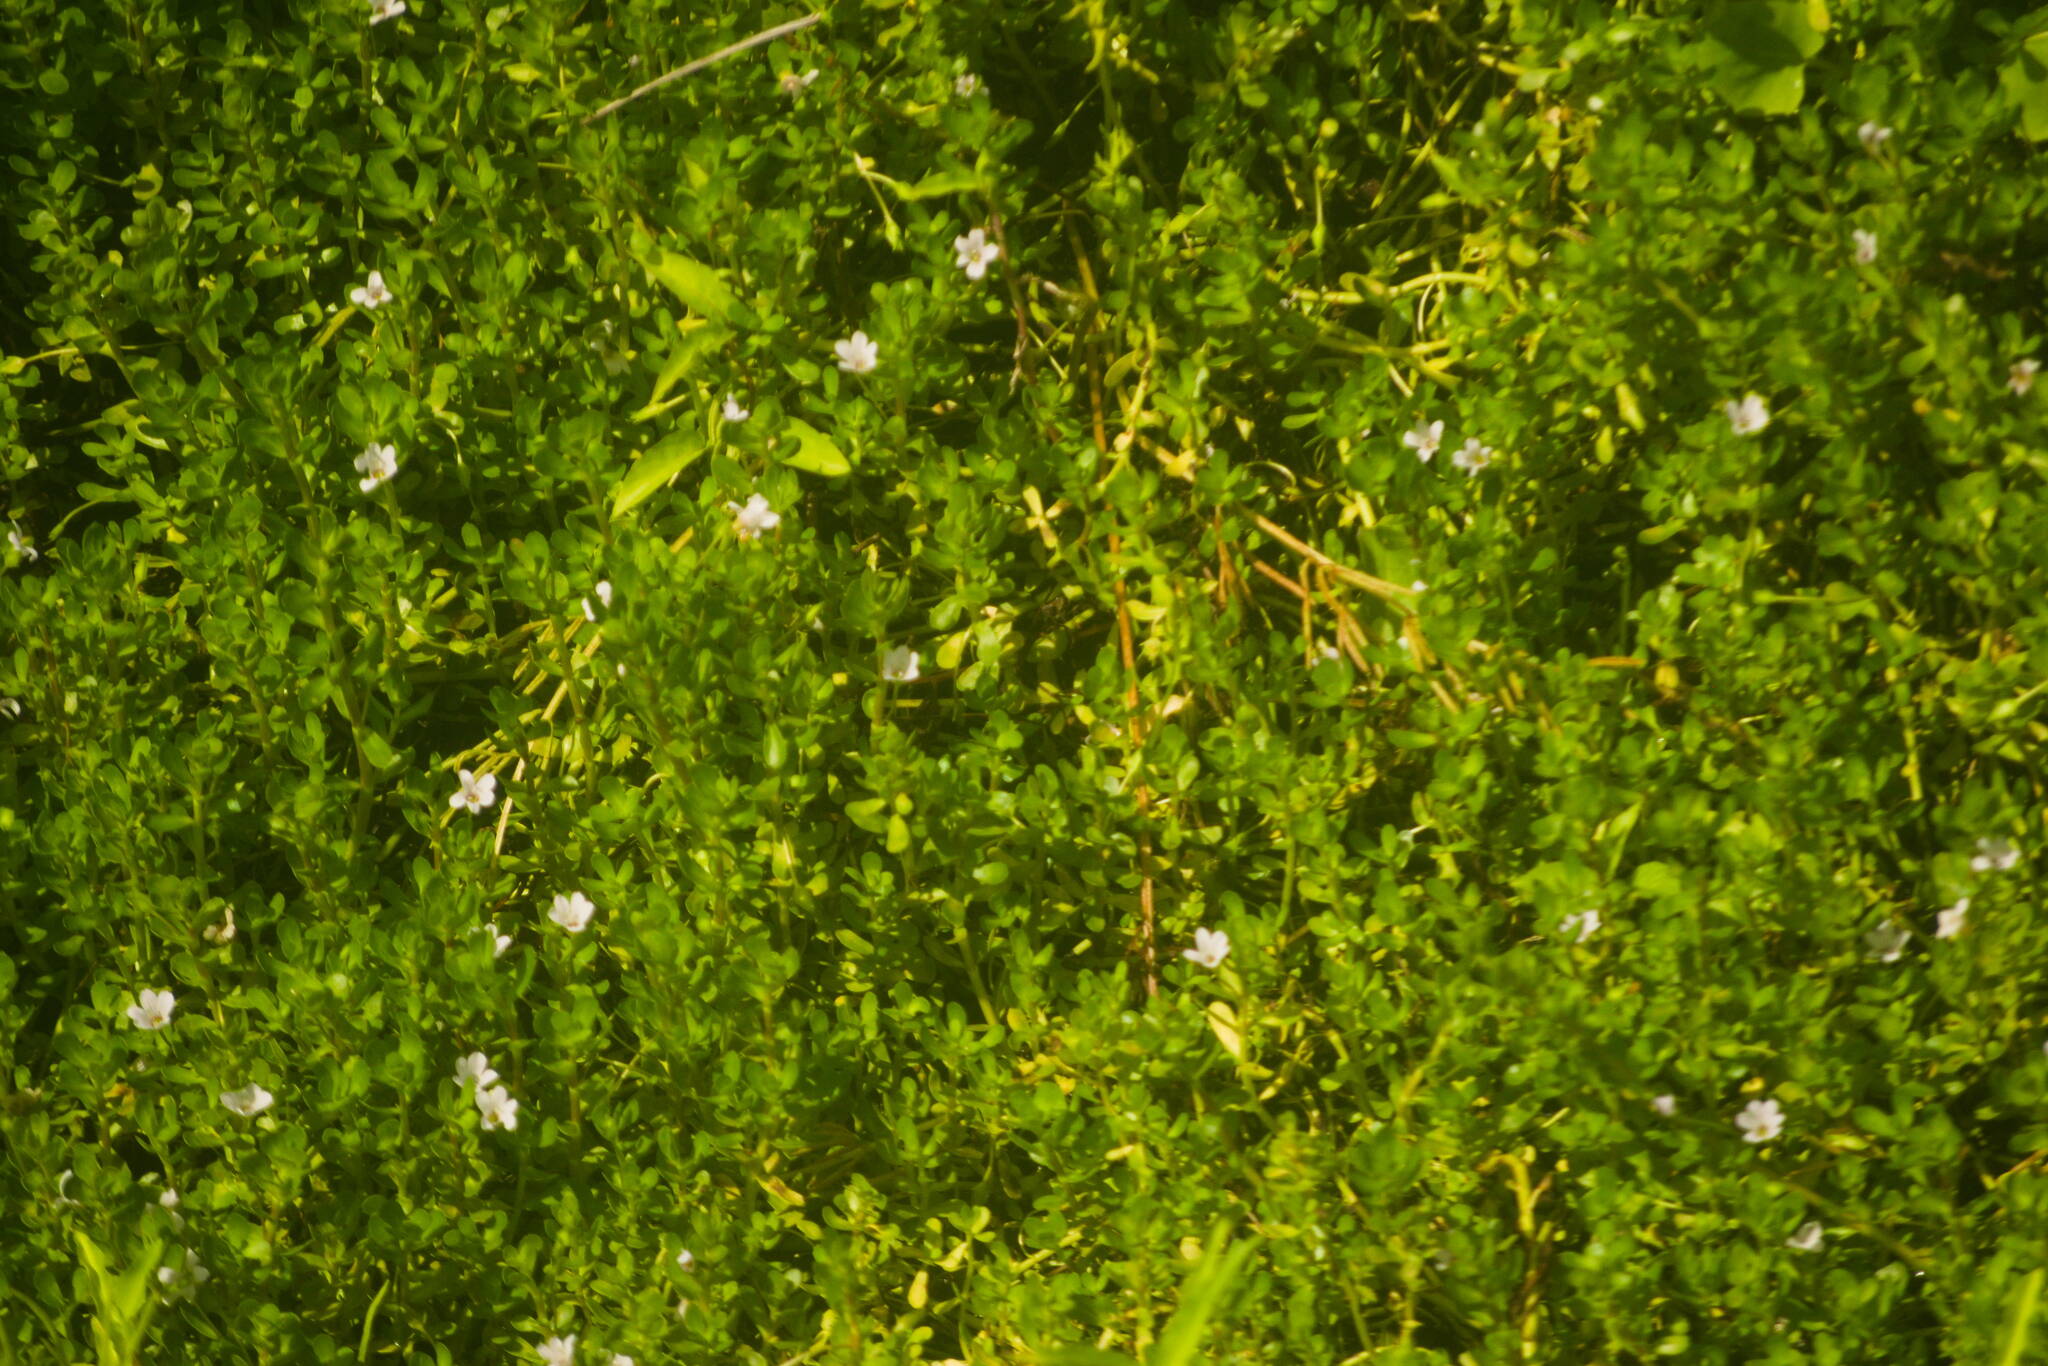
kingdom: Plantae
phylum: Tracheophyta
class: Magnoliopsida
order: Lamiales
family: Plantaginaceae
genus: Bacopa
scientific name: Bacopa monnieri
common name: Indian-pennywort
